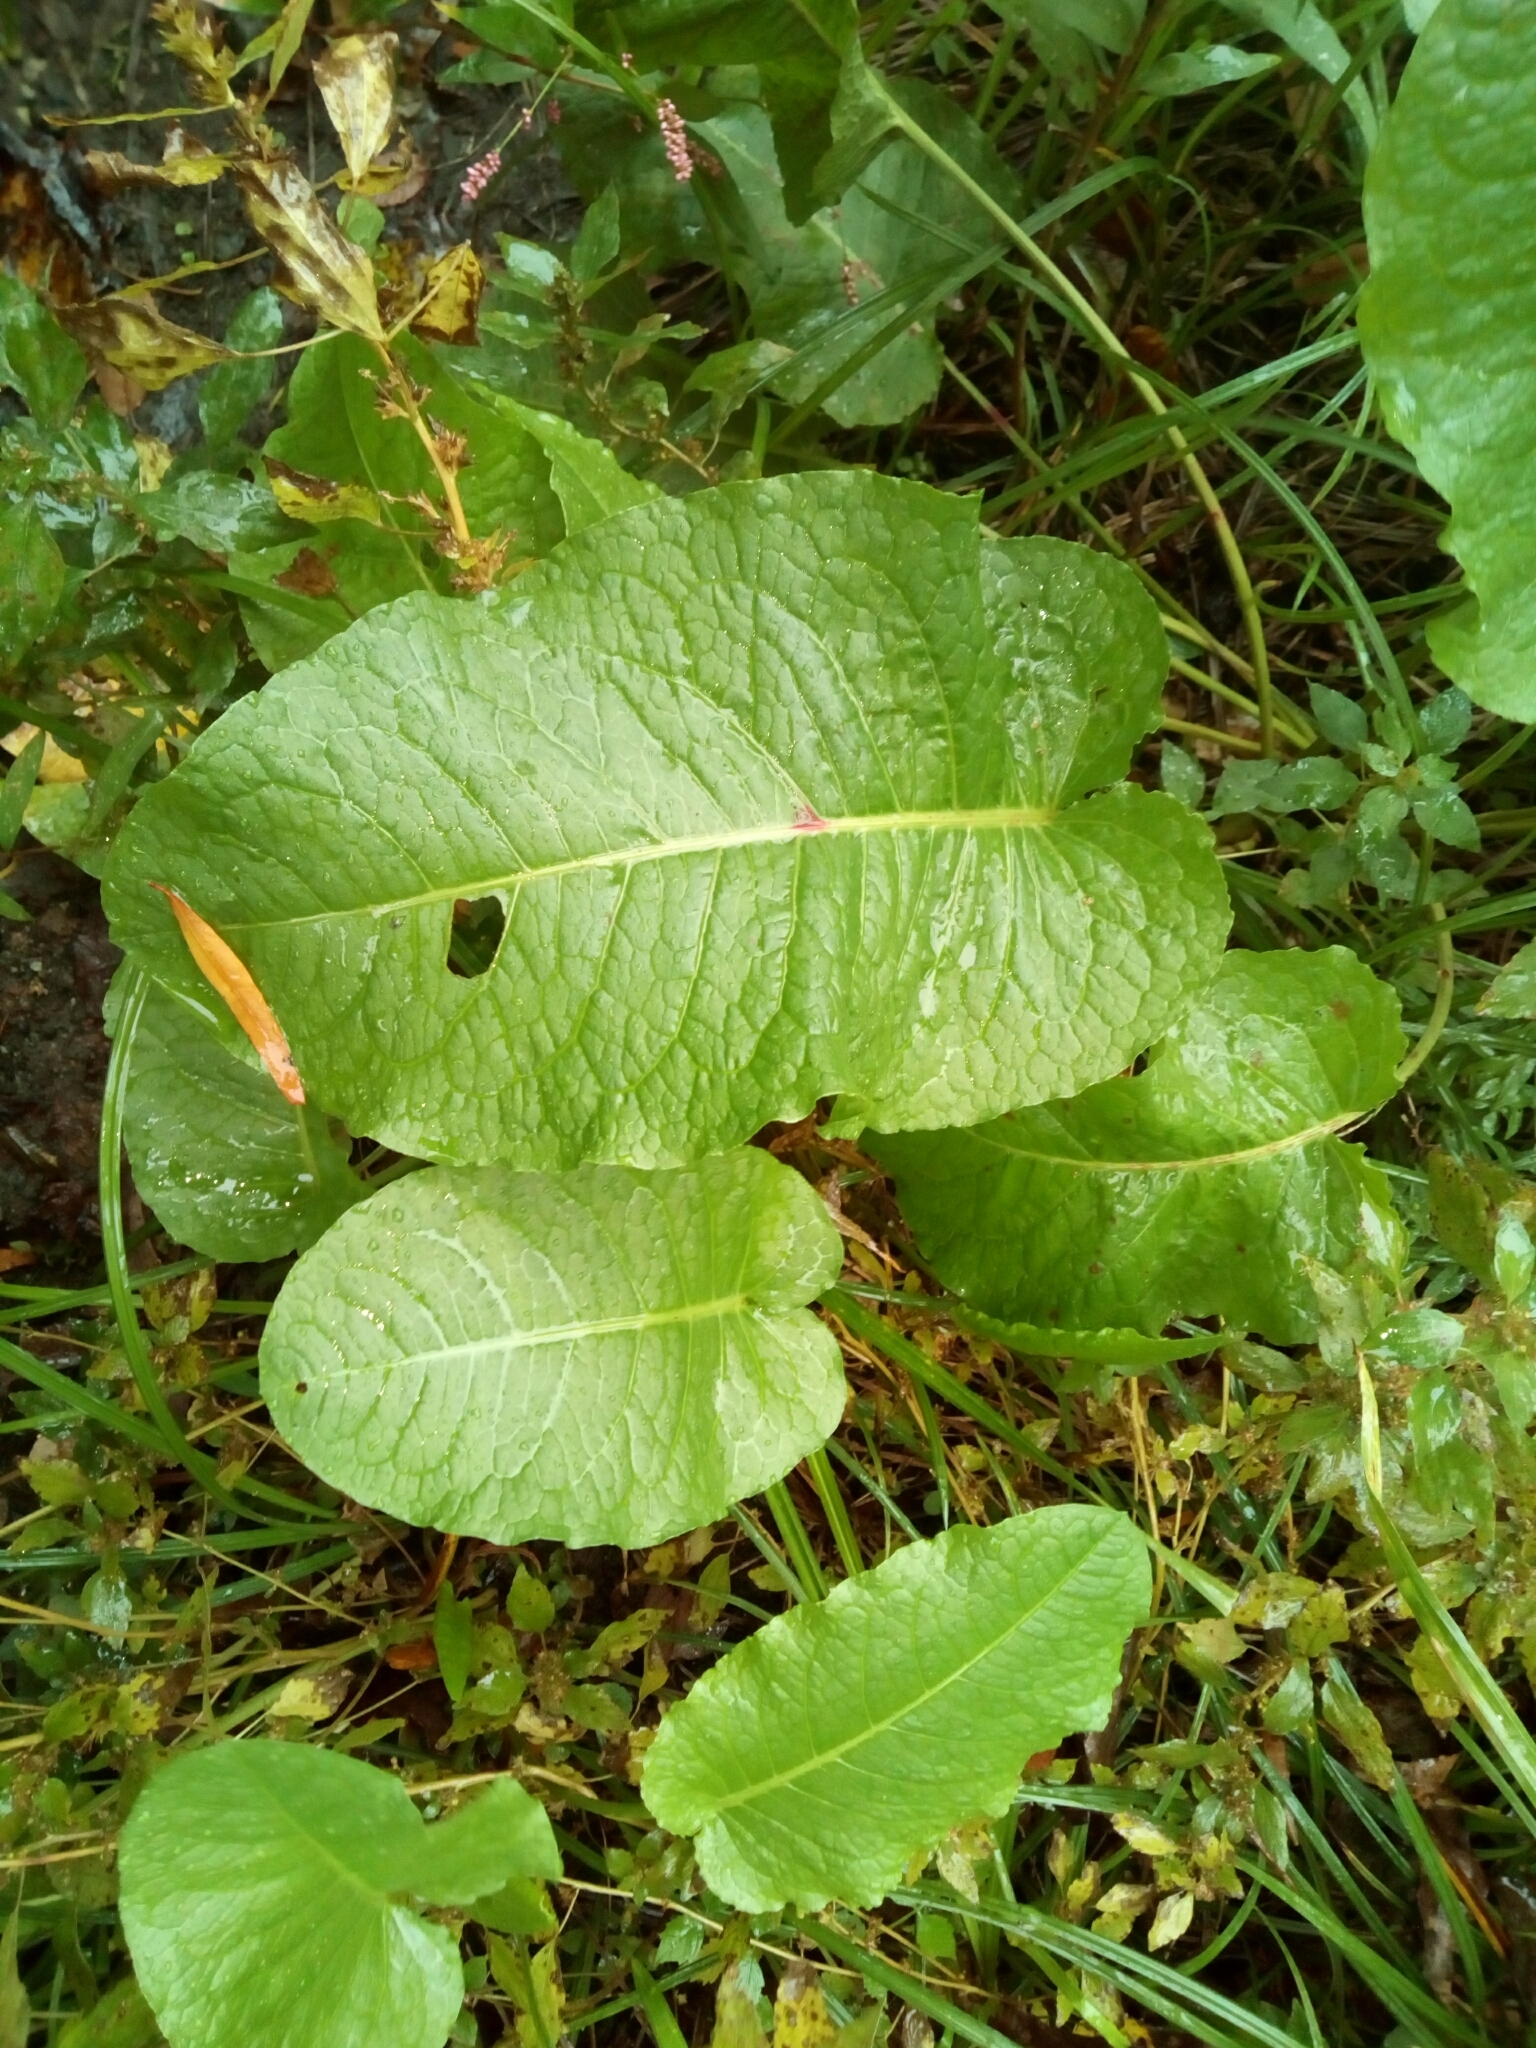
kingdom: Plantae
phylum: Tracheophyta
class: Magnoliopsida
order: Caryophyllales
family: Polygonaceae
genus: Rumex
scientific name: Rumex obtusifolius
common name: Bitter dock
